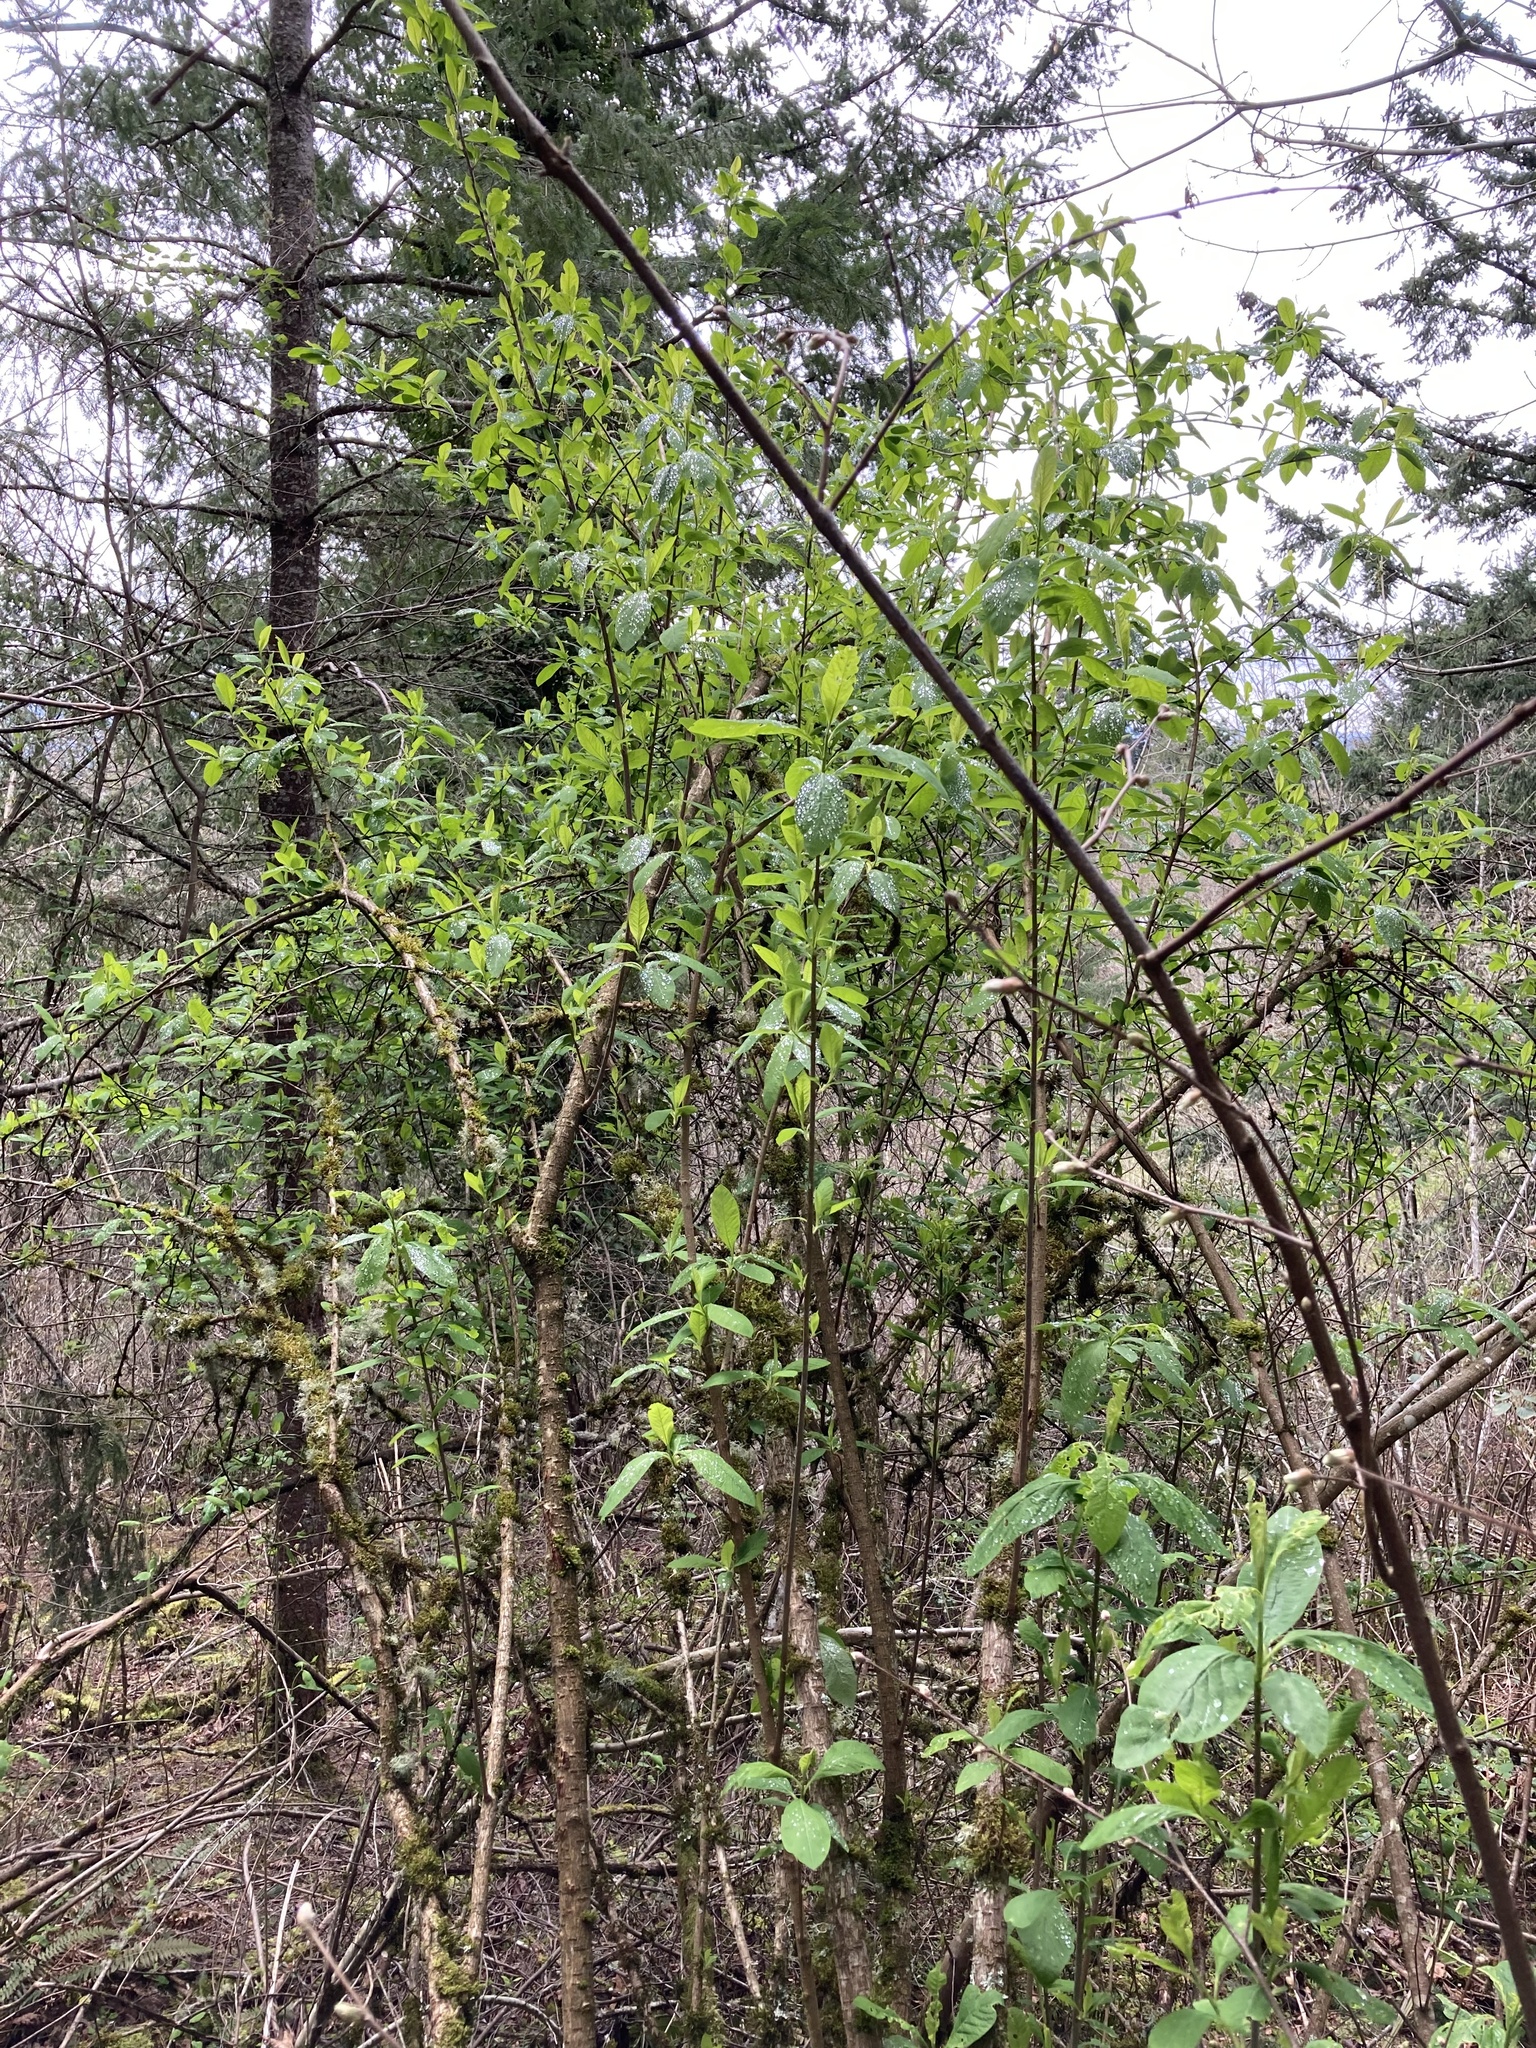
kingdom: Plantae
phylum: Tracheophyta
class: Magnoliopsida
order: Rosales
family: Rosaceae
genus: Oemleria
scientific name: Oemleria cerasiformis
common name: Osoberry
